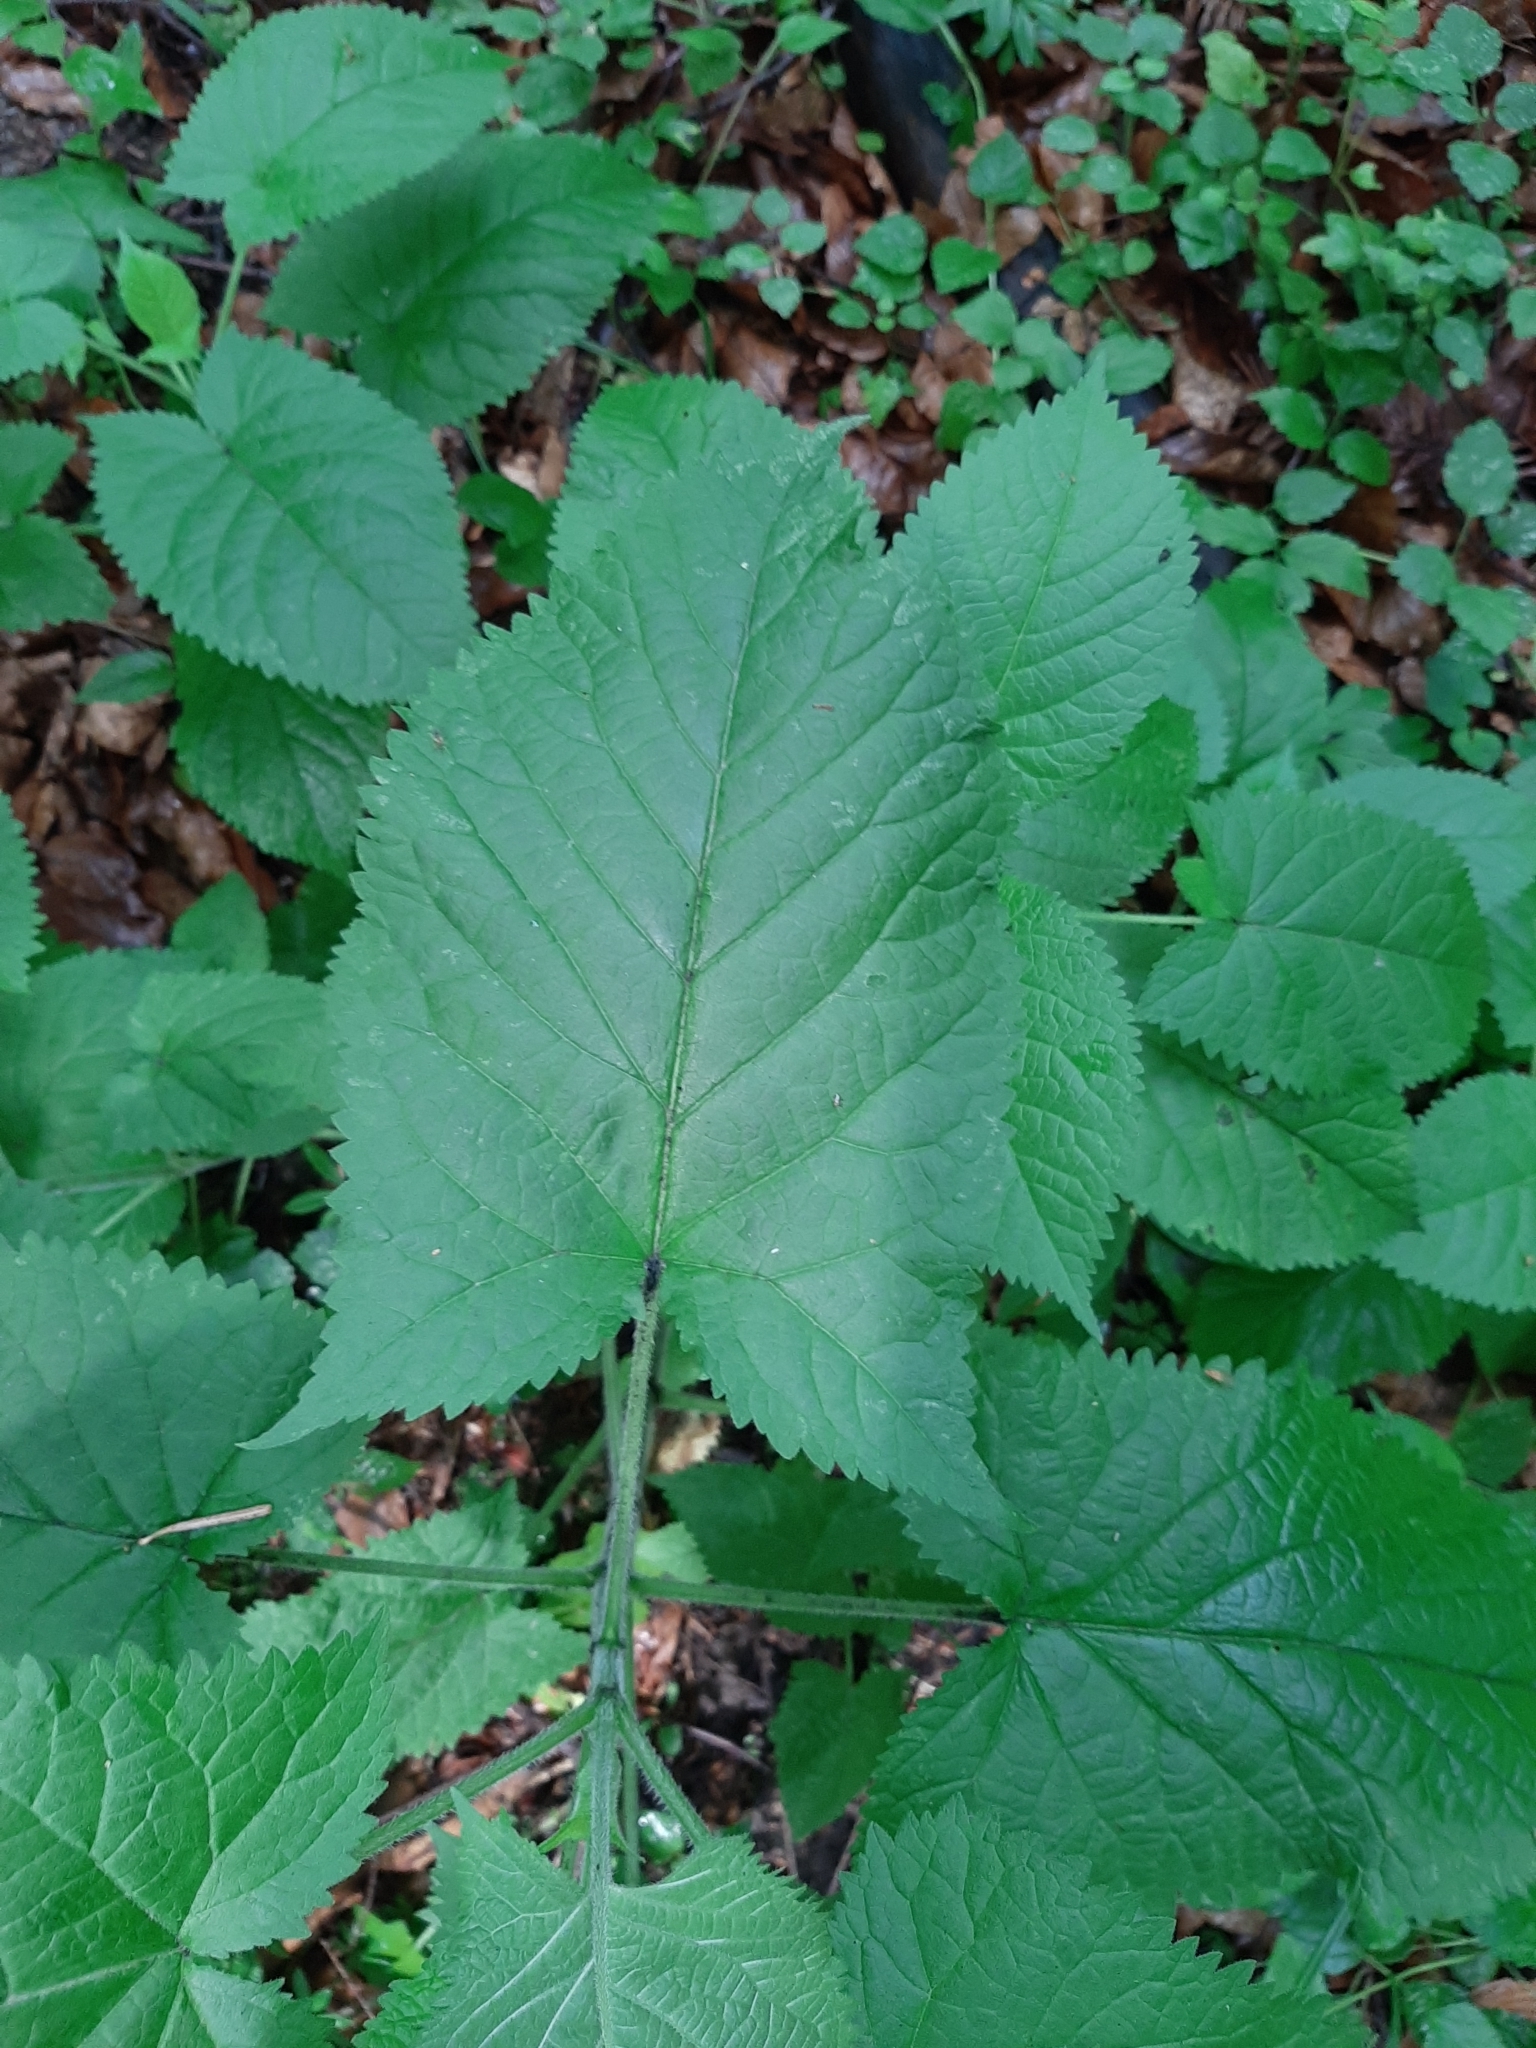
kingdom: Plantae
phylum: Tracheophyta
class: Magnoliopsida
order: Lamiales
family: Lamiaceae
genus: Salvia
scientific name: Salvia glutinosa
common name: Sticky clary
